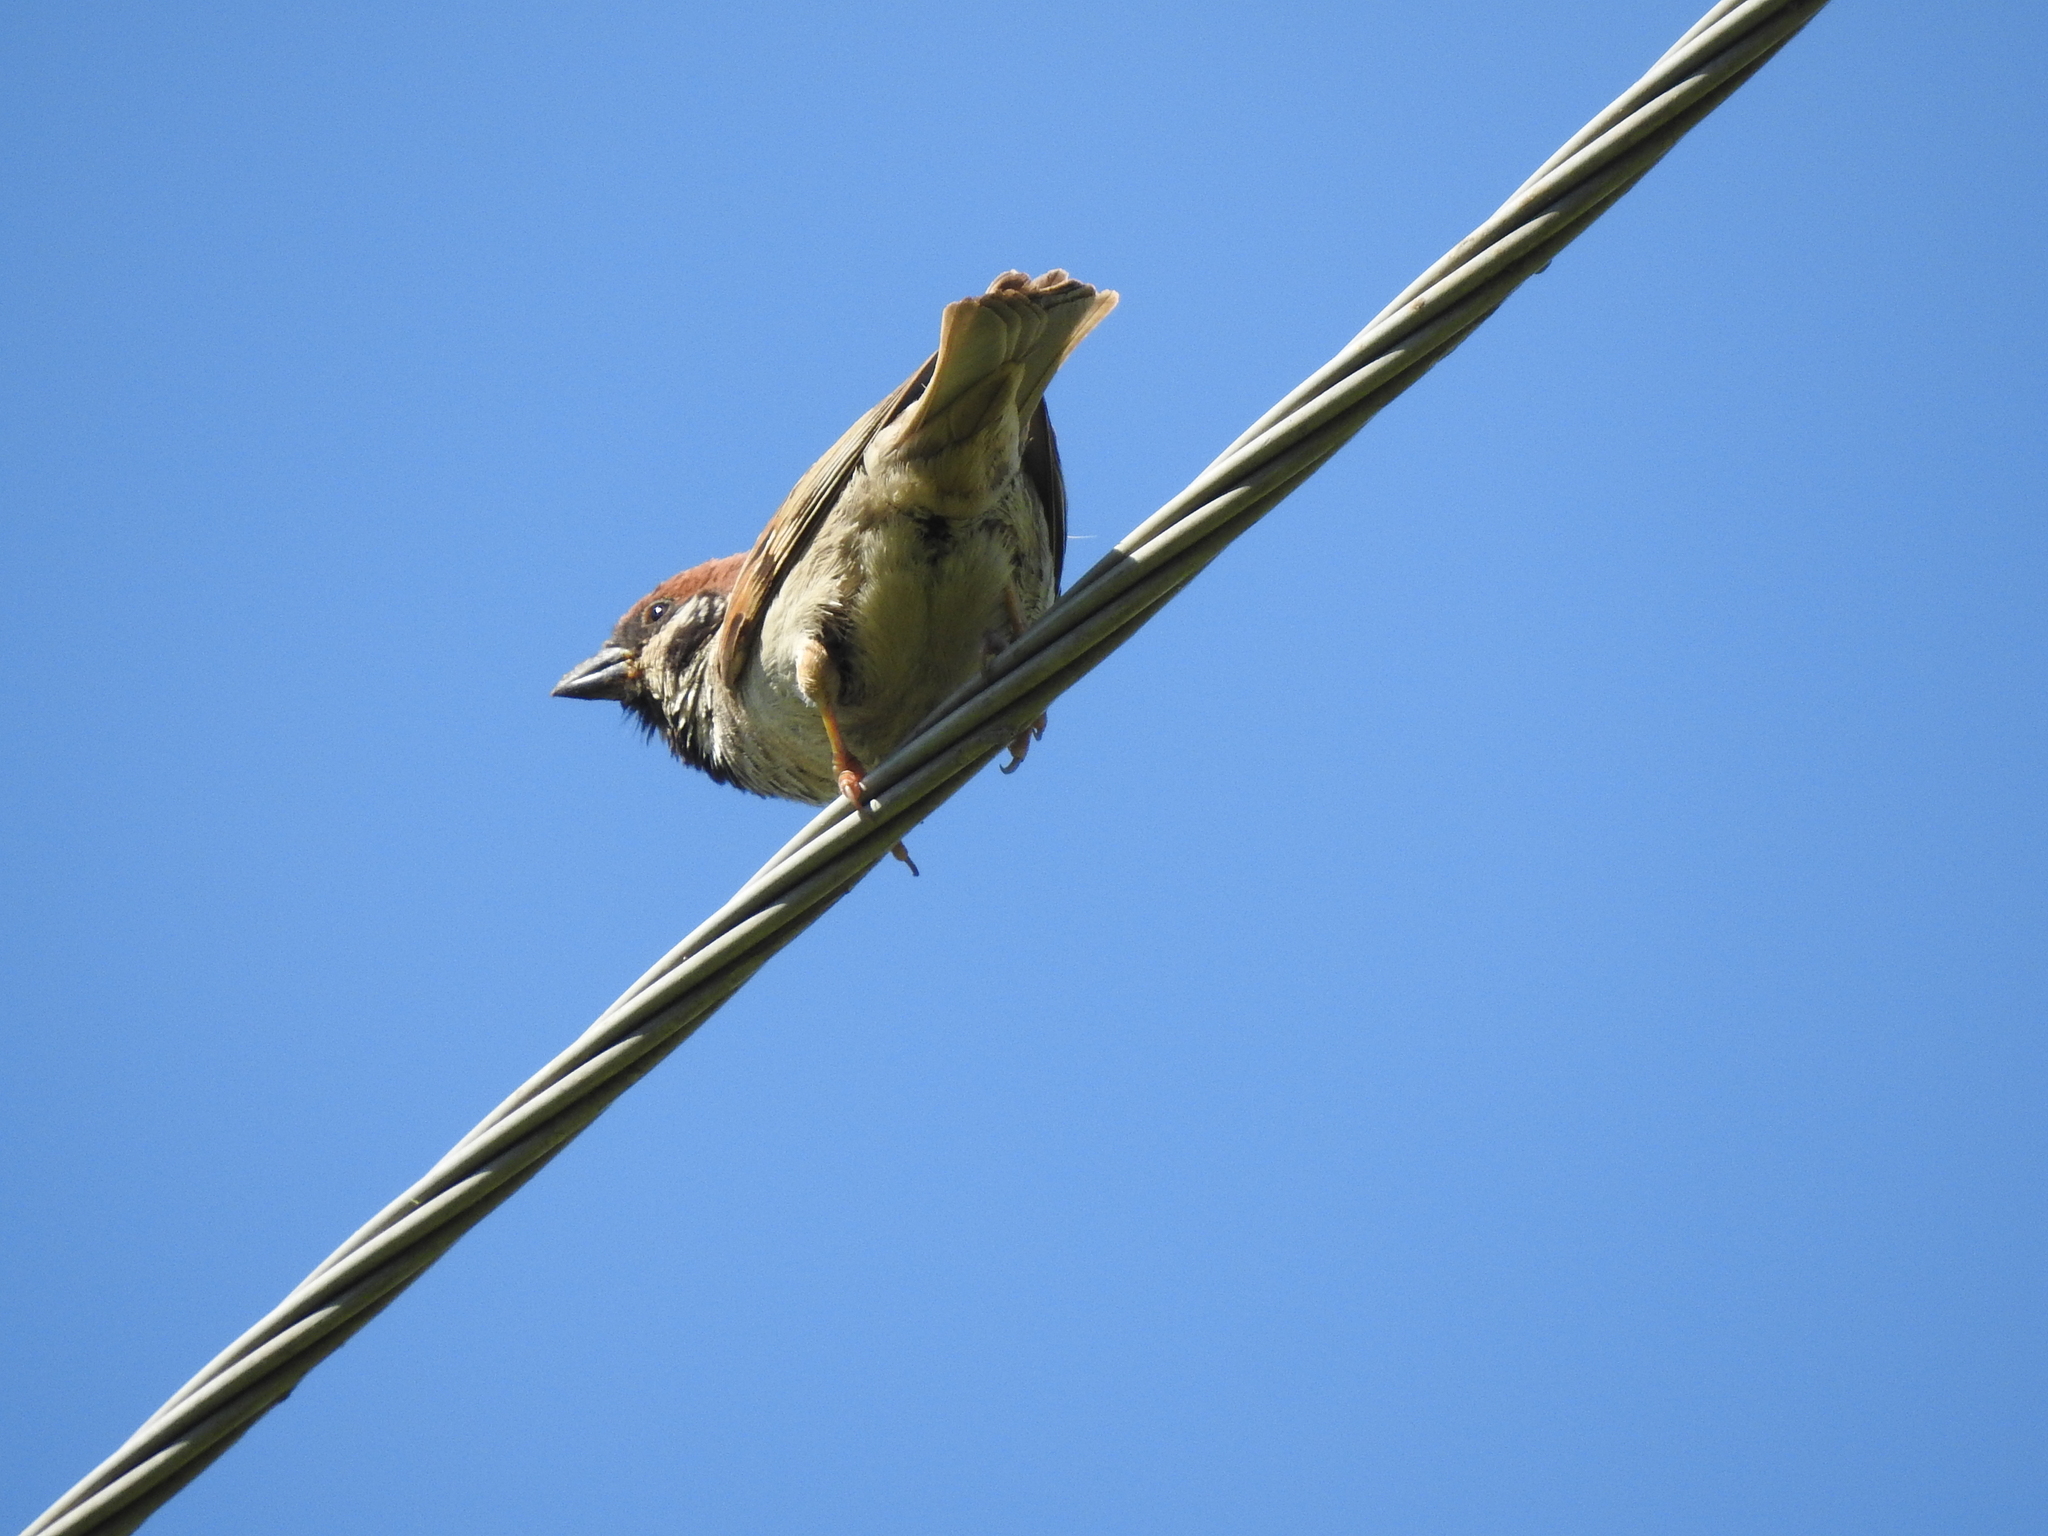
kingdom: Animalia
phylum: Chordata
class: Aves
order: Passeriformes
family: Passeridae
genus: Passer
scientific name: Passer montanus
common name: Eurasian tree sparrow
